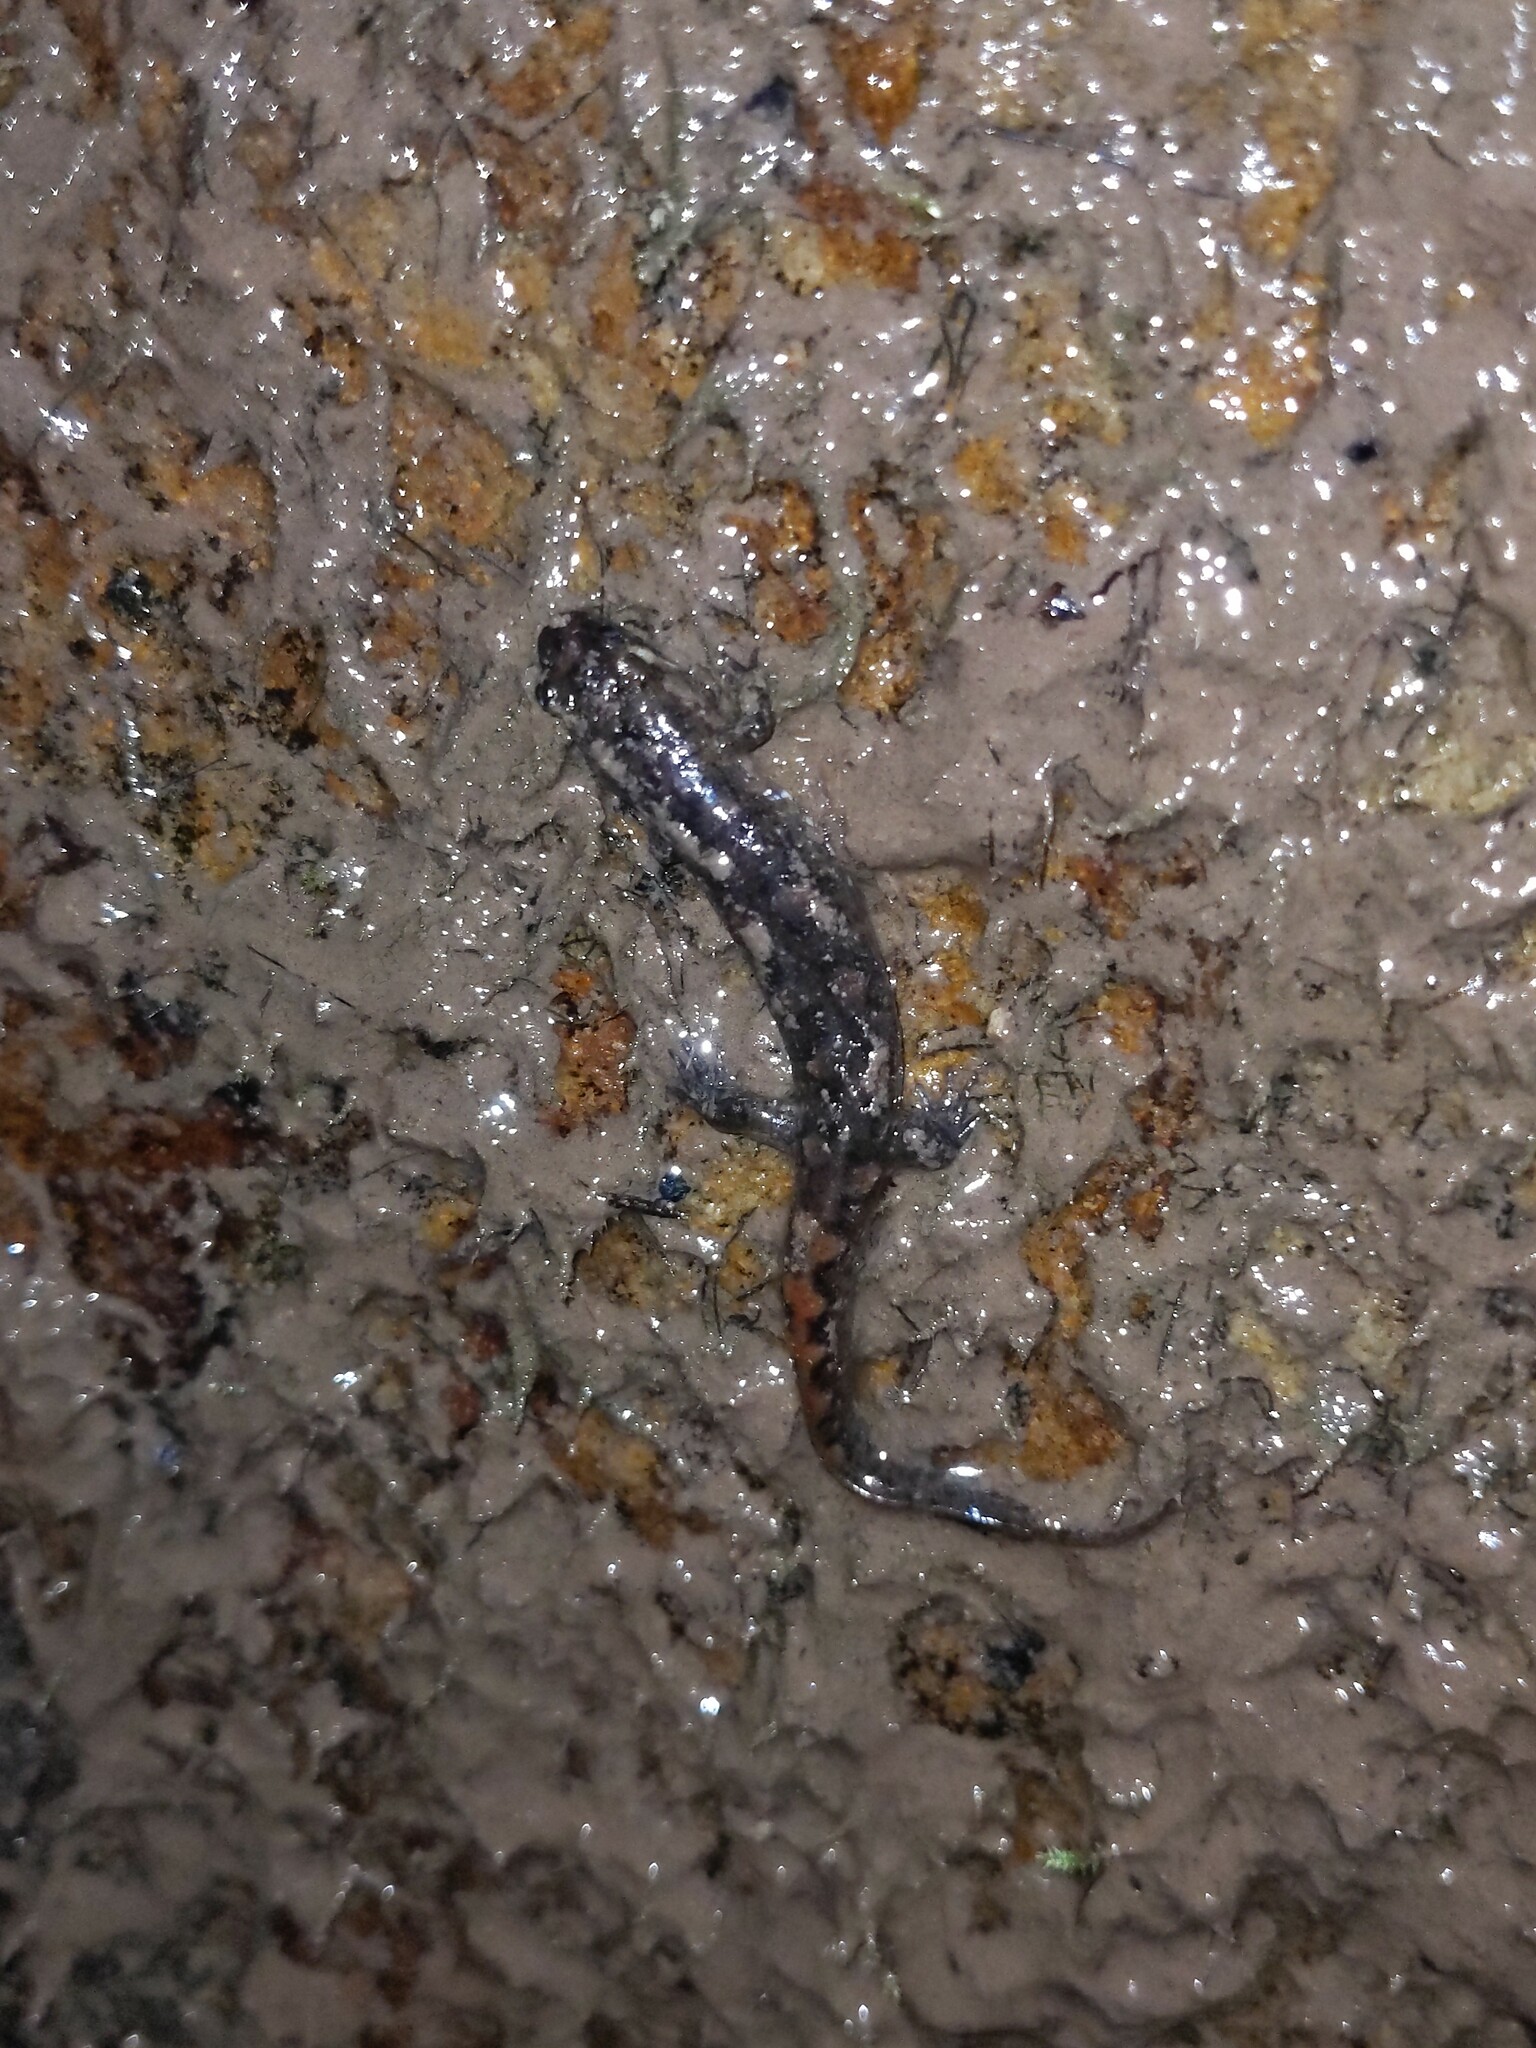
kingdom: Animalia
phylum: Chordata
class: Amphibia
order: Caudata
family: Plethodontidae
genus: Desmognathus
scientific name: Desmognathus monticola
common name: Seal salamander
